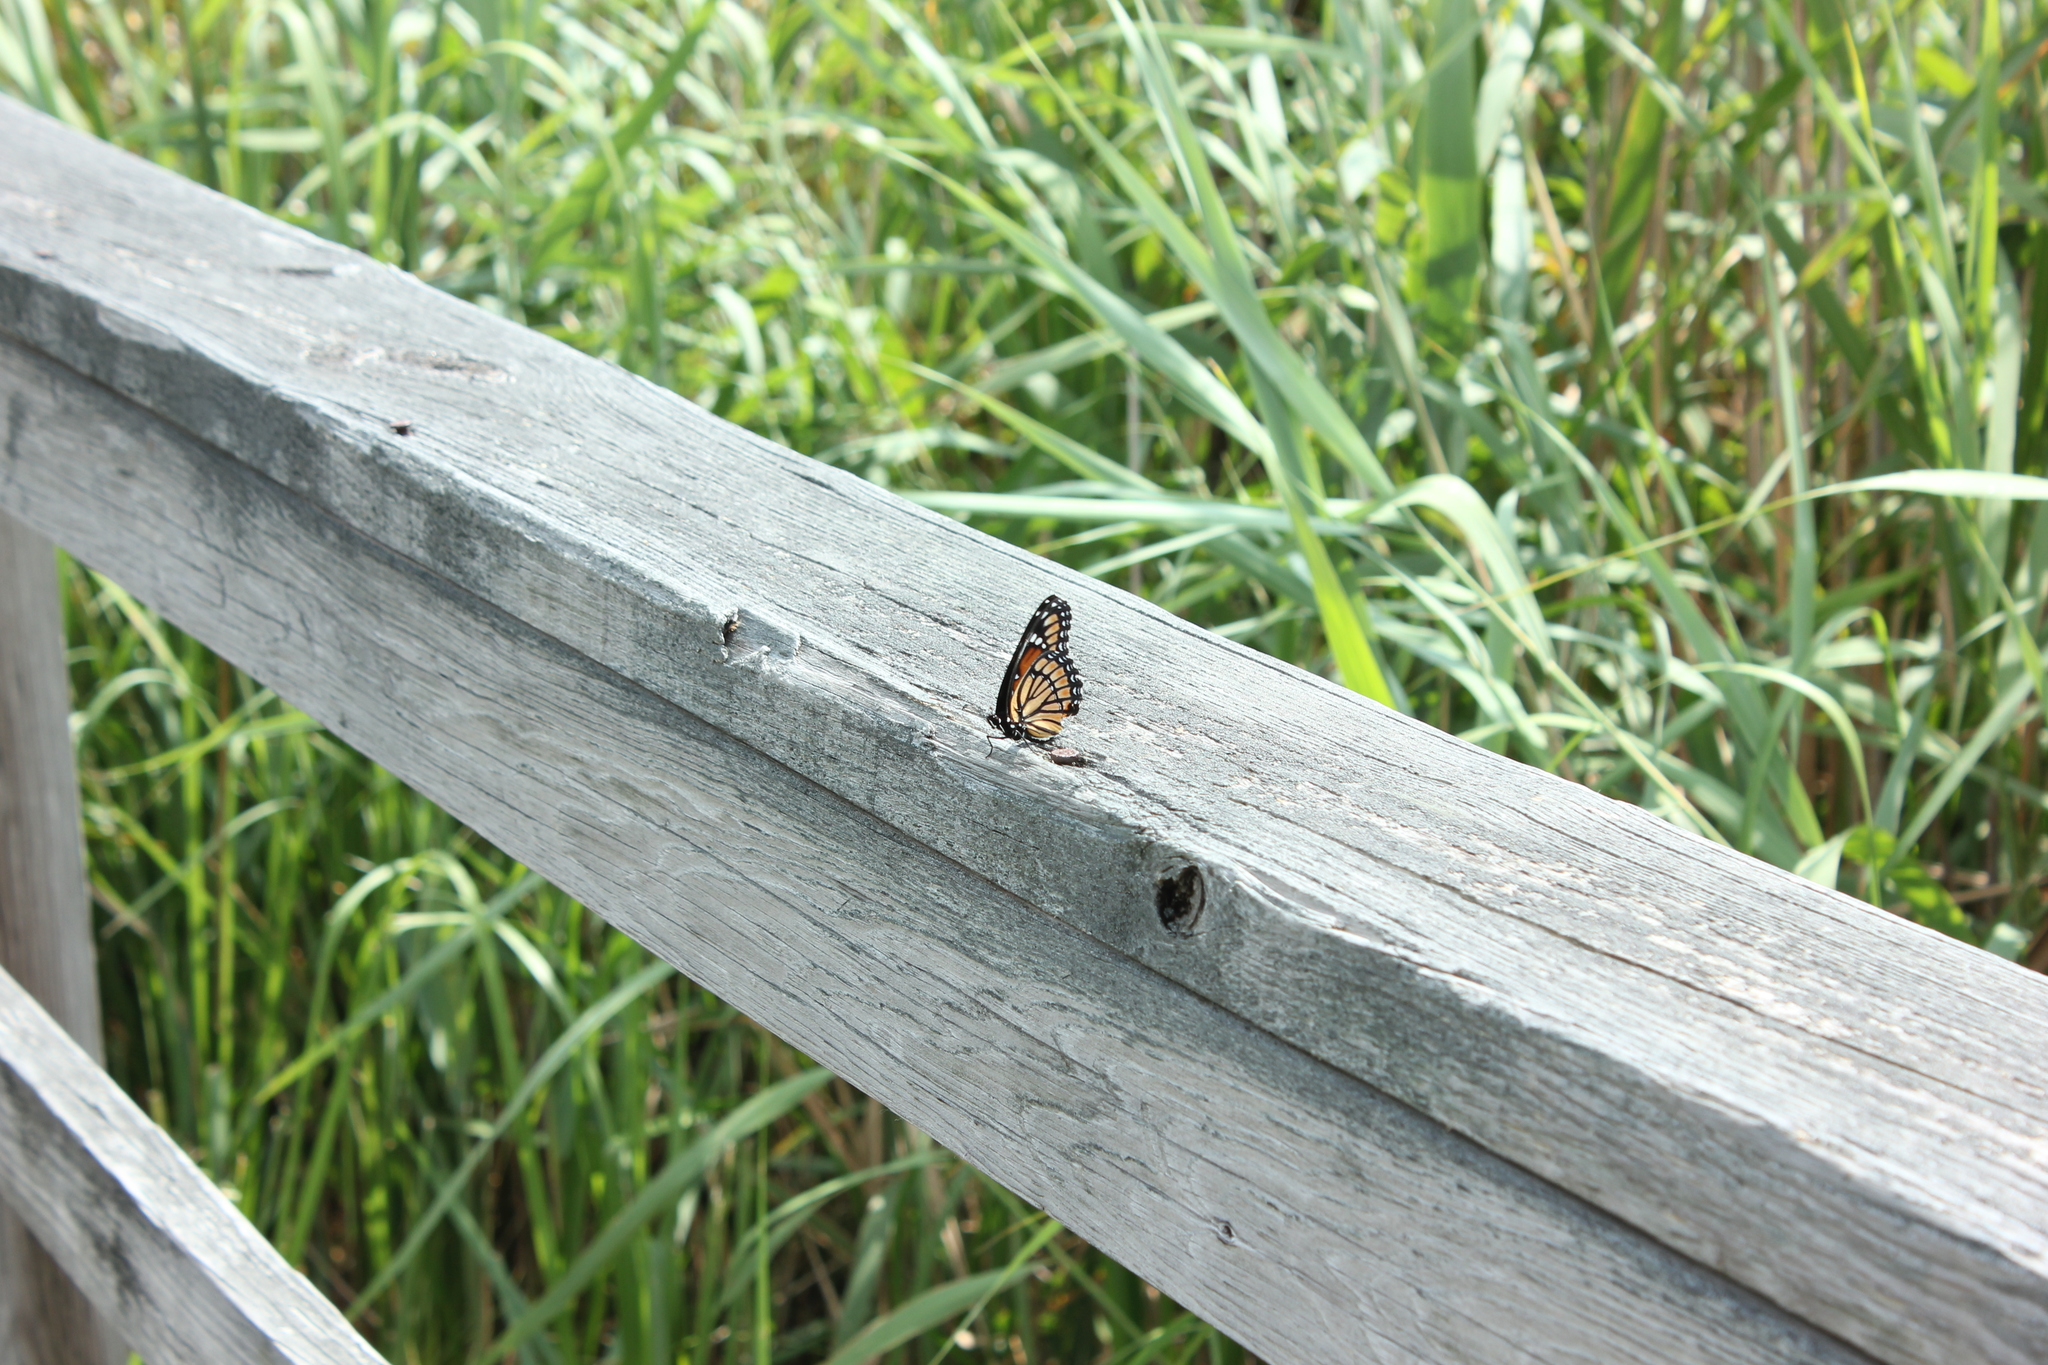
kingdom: Animalia
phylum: Arthropoda
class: Insecta
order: Lepidoptera
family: Nymphalidae
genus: Limenitis
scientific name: Limenitis archippus
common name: Viceroy
